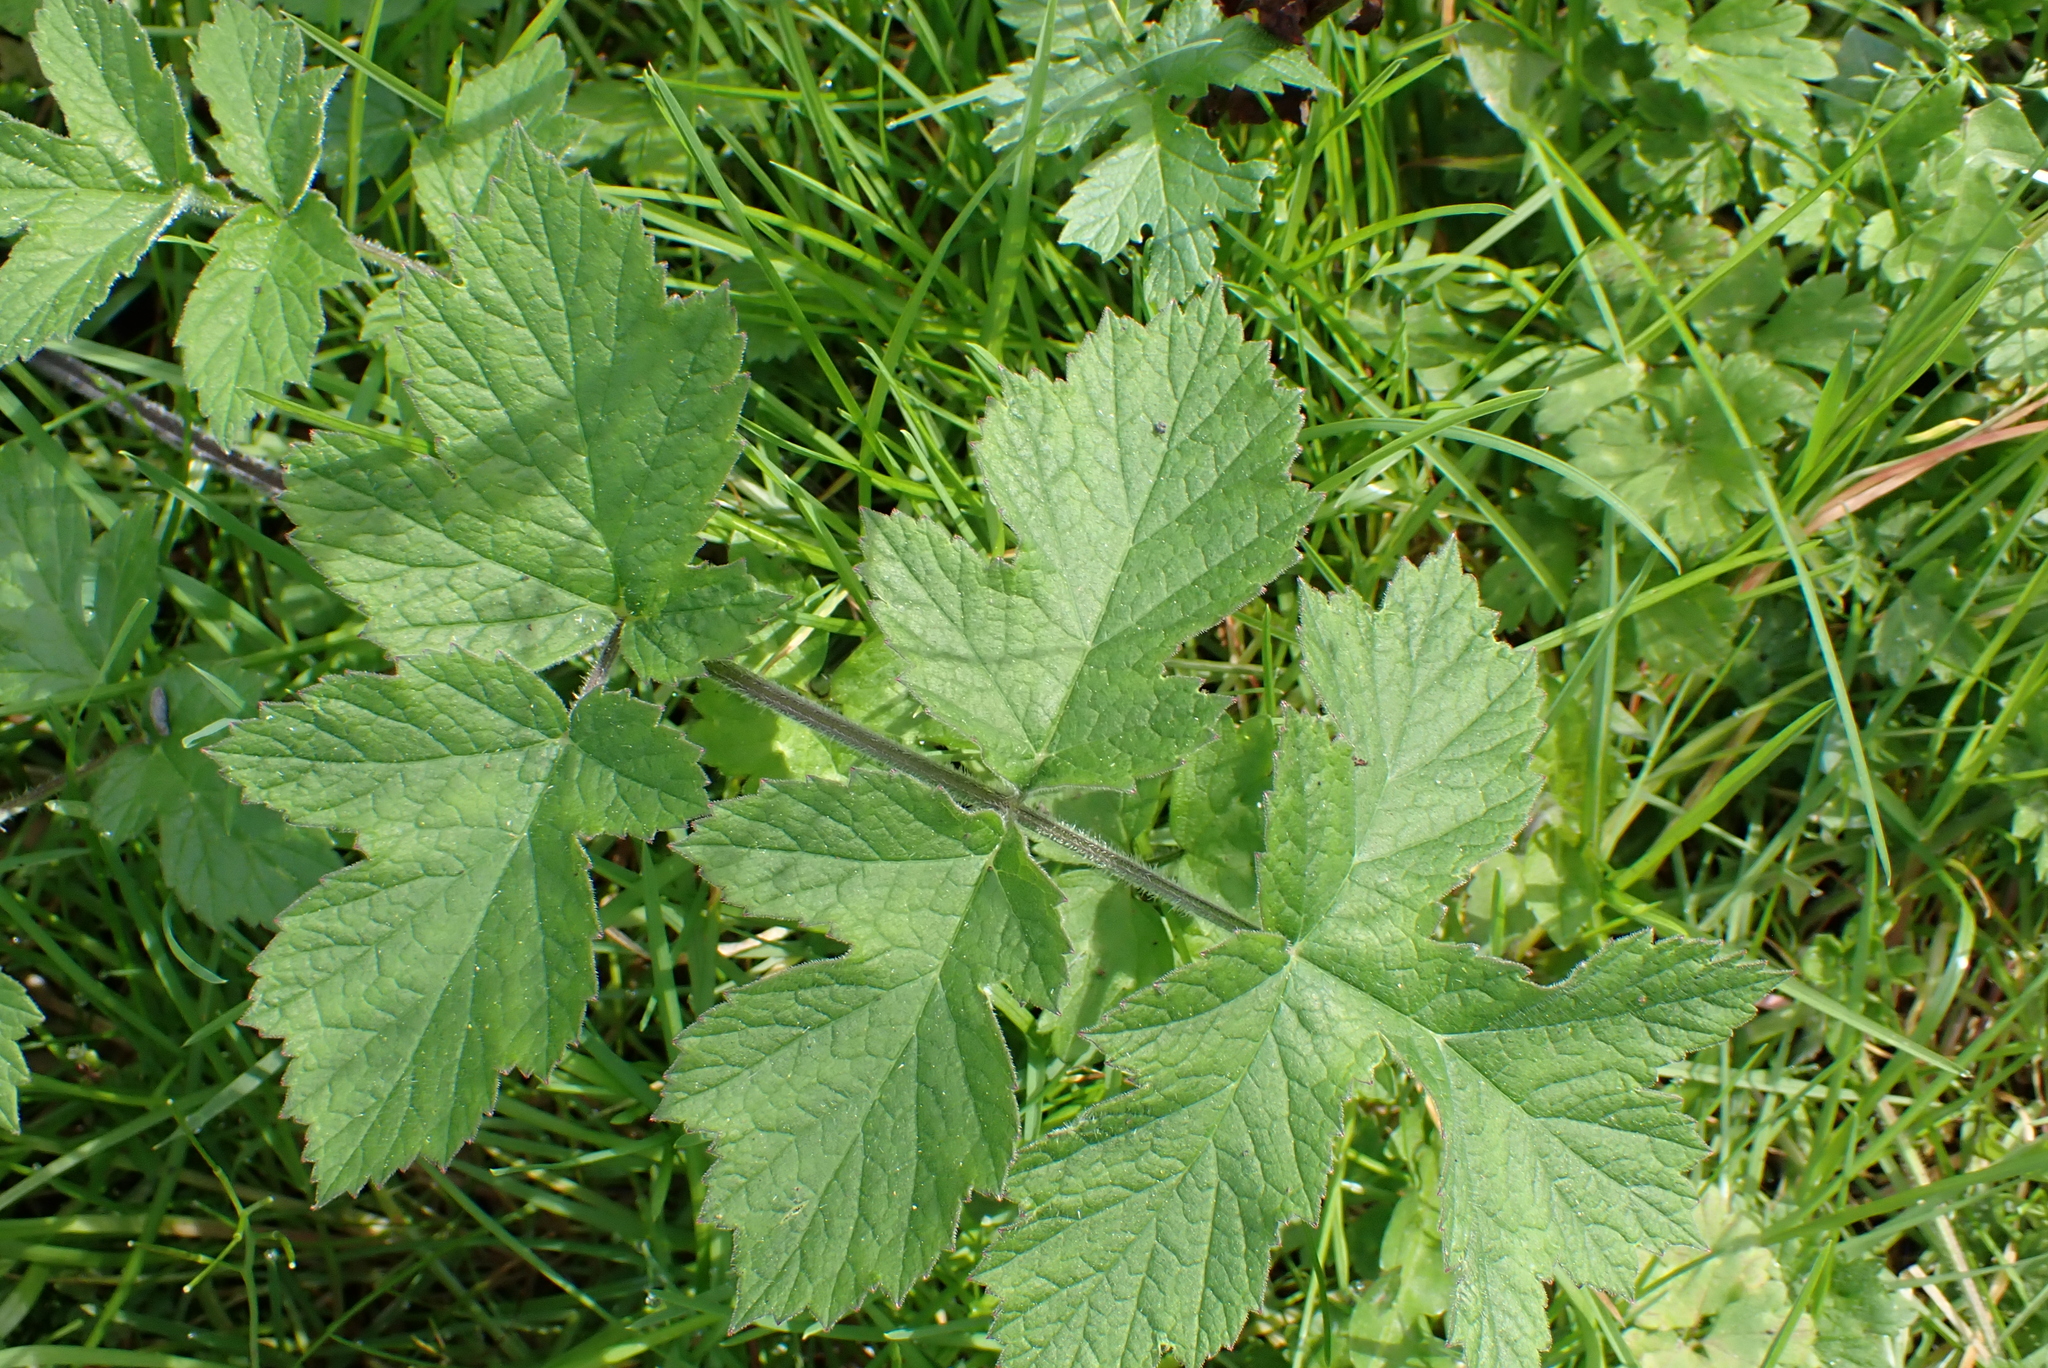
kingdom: Plantae
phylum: Tracheophyta
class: Magnoliopsida
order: Apiales
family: Apiaceae
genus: Heracleum
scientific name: Heracleum sphondylium
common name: Hogweed
